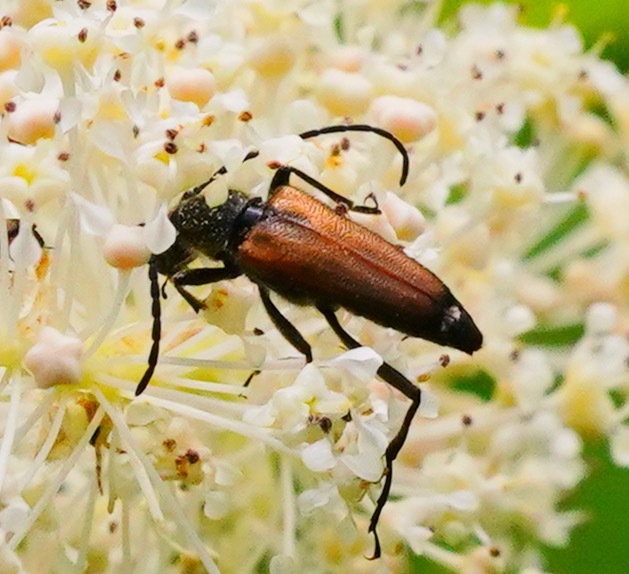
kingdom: Animalia
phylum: Arthropoda
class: Insecta
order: Coleoptera
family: Cerambycidae
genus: Anastrangalia
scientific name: Anastrangalia sanguinea
